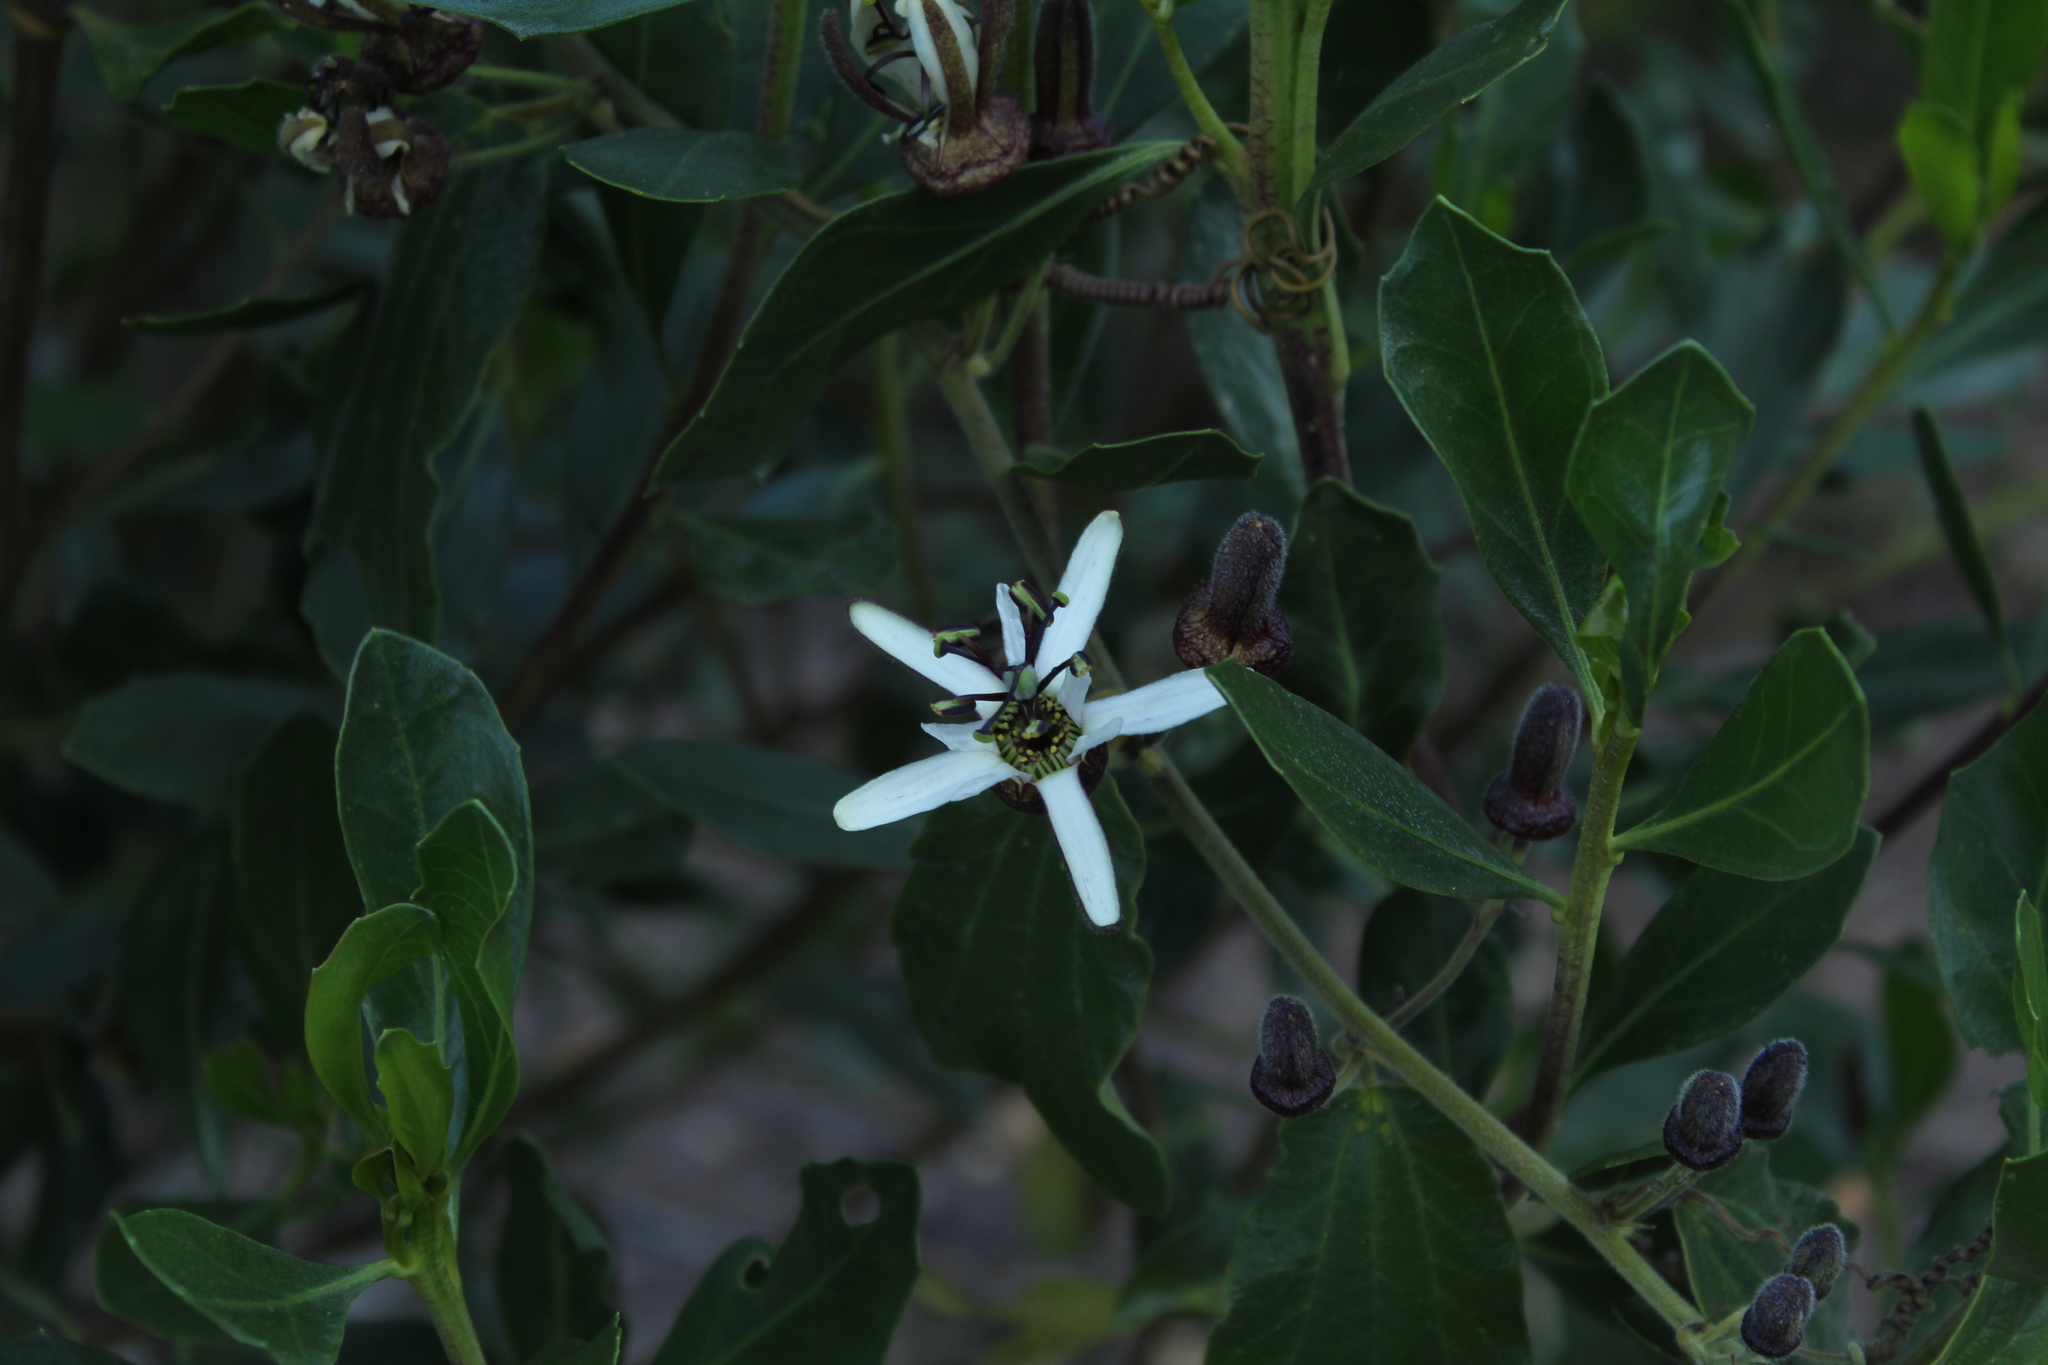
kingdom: Plantae
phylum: Tracheophyta
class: Magnoliopsida
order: Malpighiales
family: Passifloraceae
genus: Passiflora
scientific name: Passiflora bogotensis
